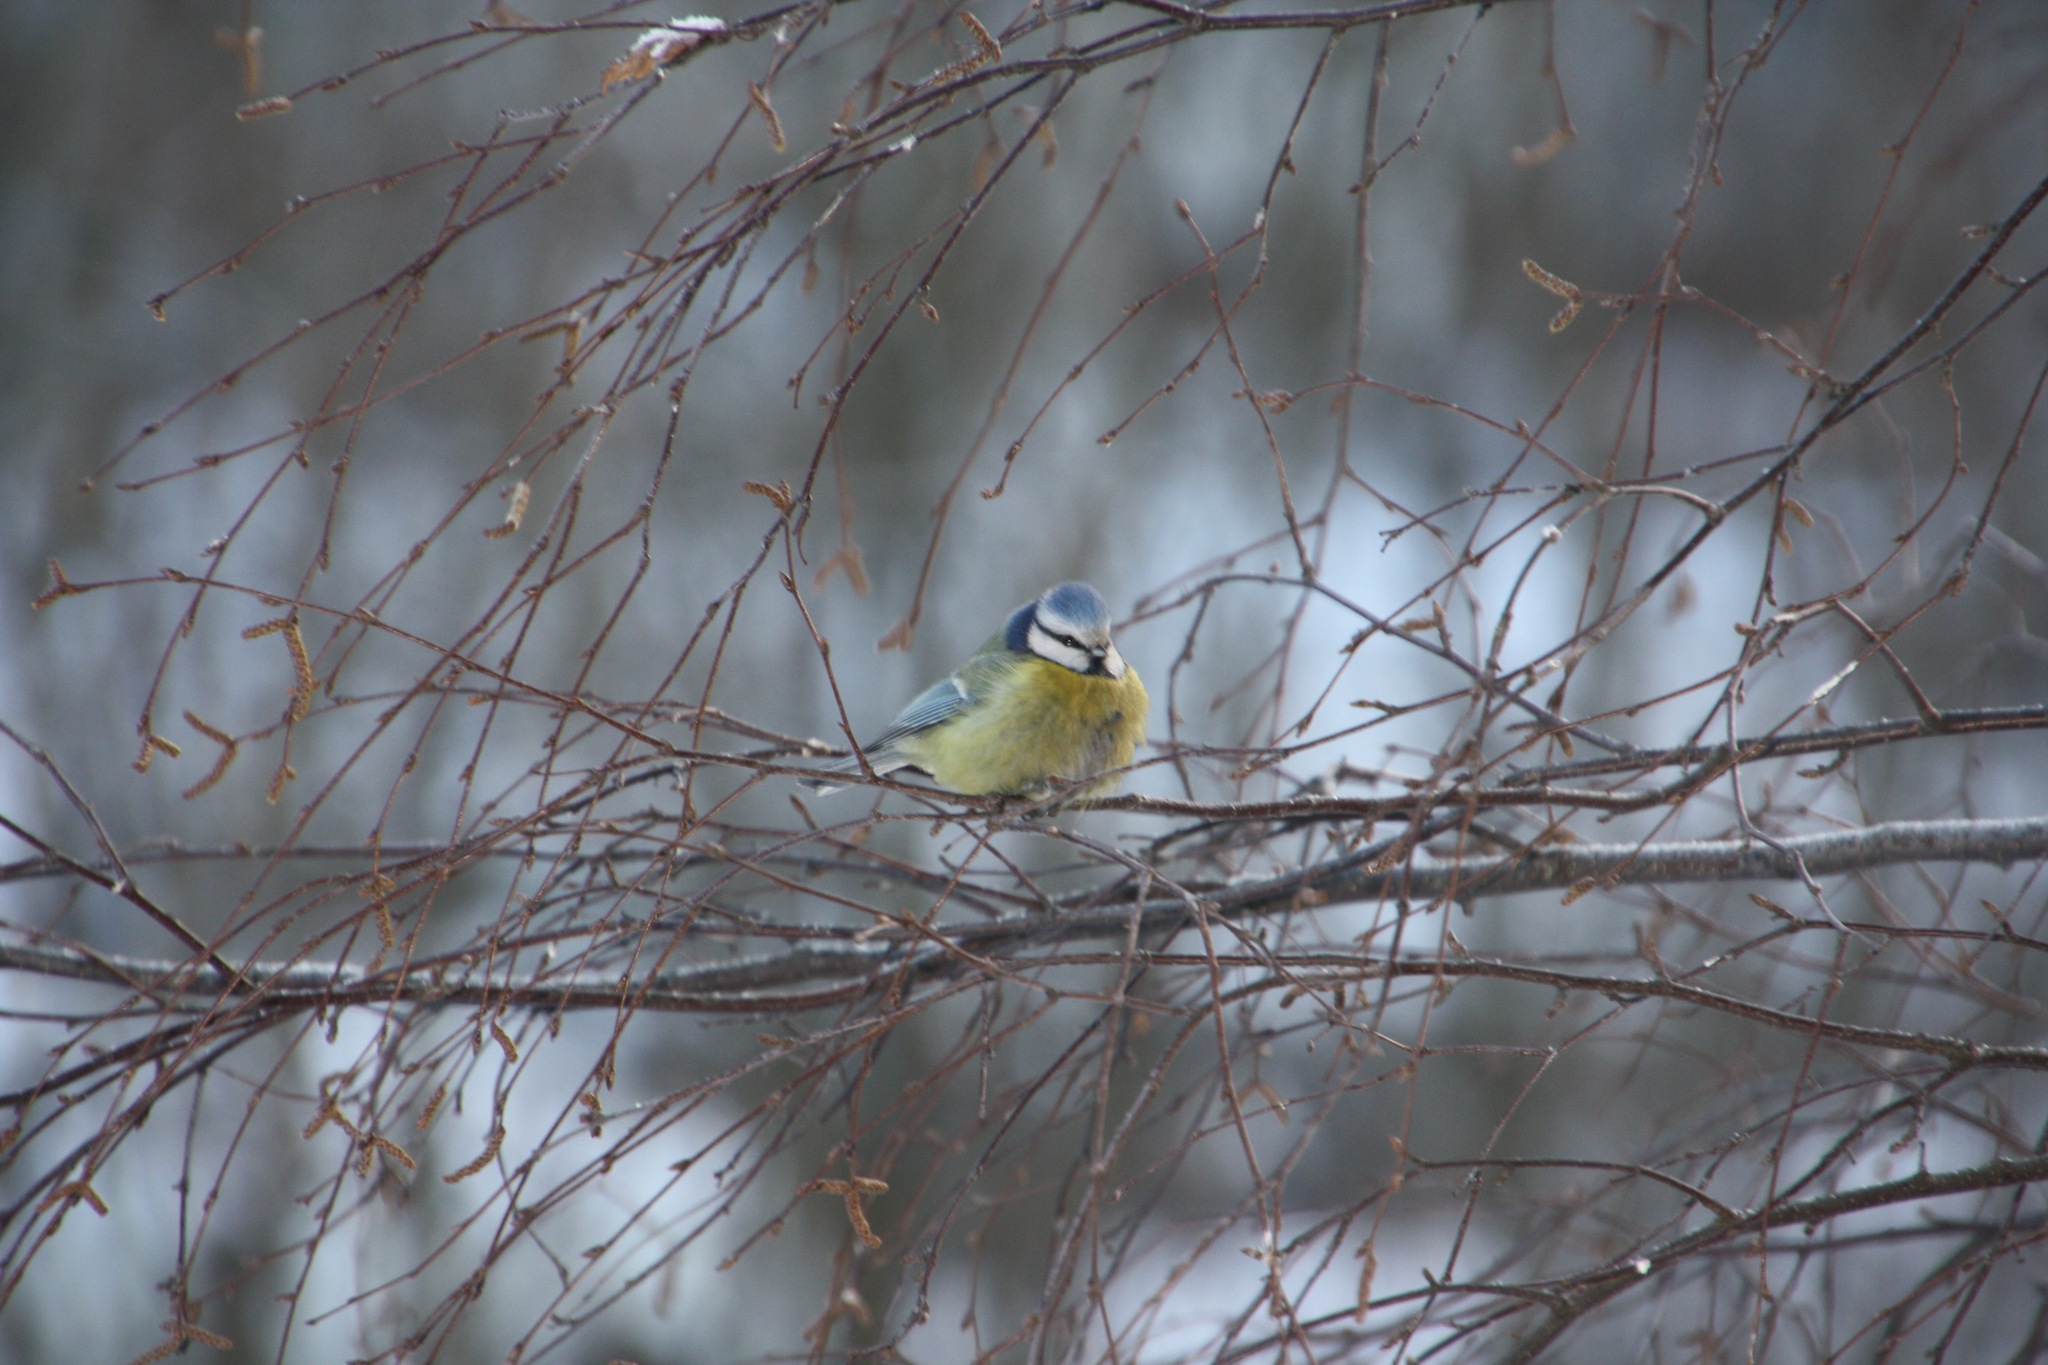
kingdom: Animalia
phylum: Chordata
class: Aves
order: Passeriformes
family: Paridae
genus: Cyanistes
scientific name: Cyanistes caeruleus
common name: Eurasian blue tit
